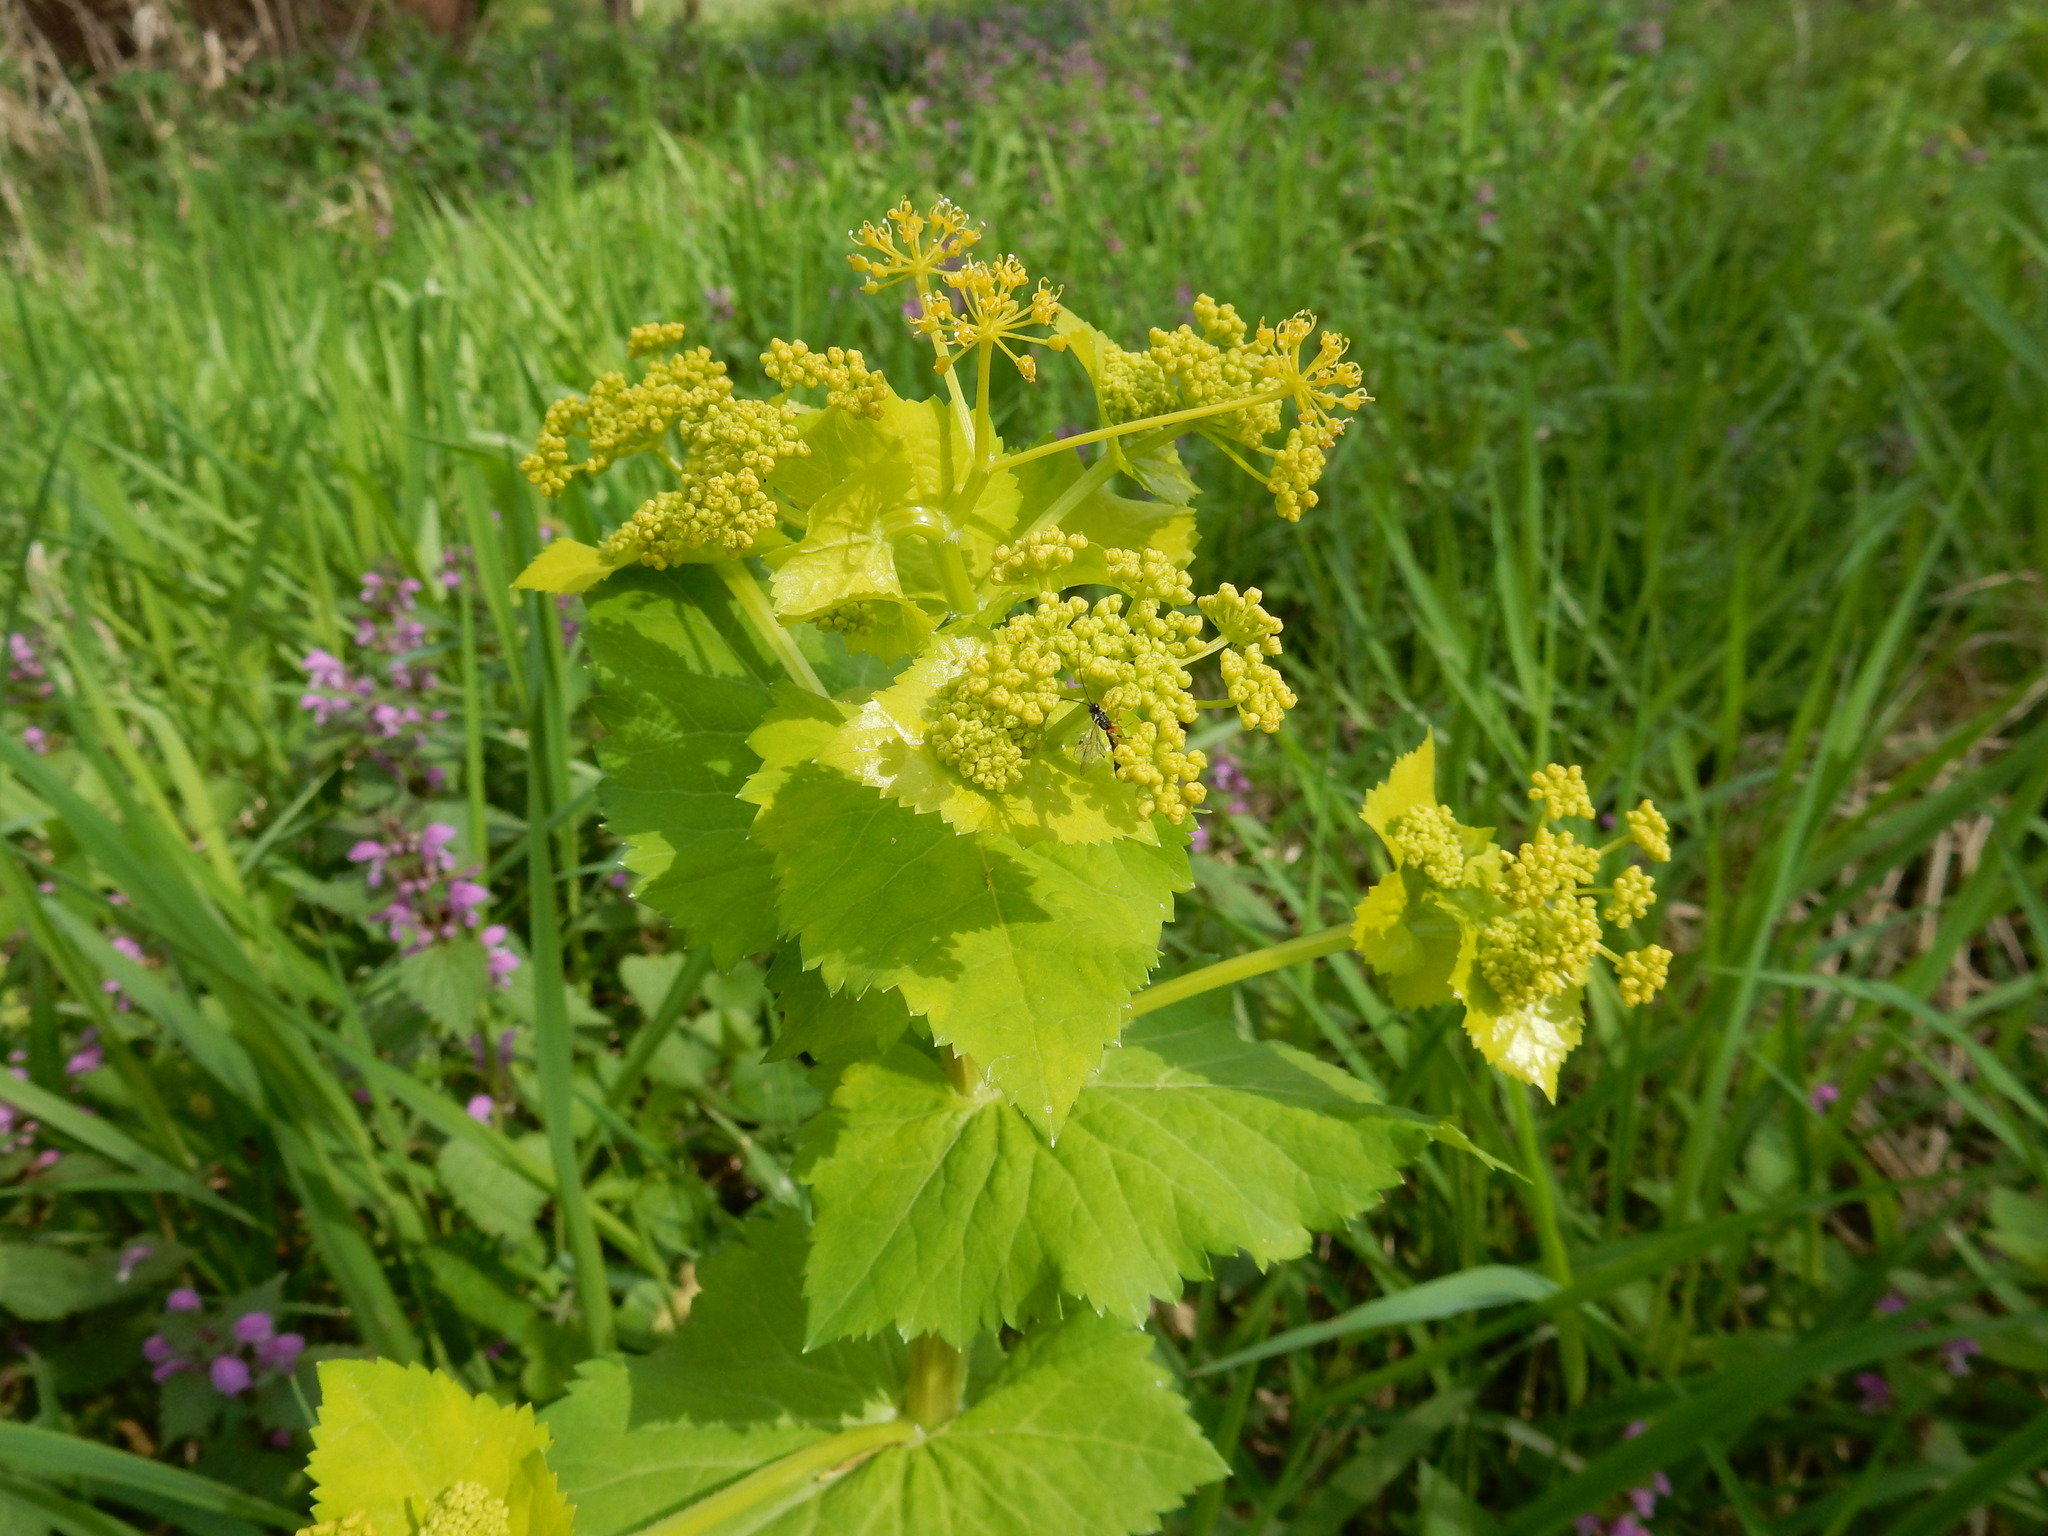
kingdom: Plantae
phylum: Tracheophyta
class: Magnoliopsida
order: Apiales
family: Apiaceae
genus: Smyrnium
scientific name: Smyrnium perfoliatum
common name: Perfoliate alexanders
